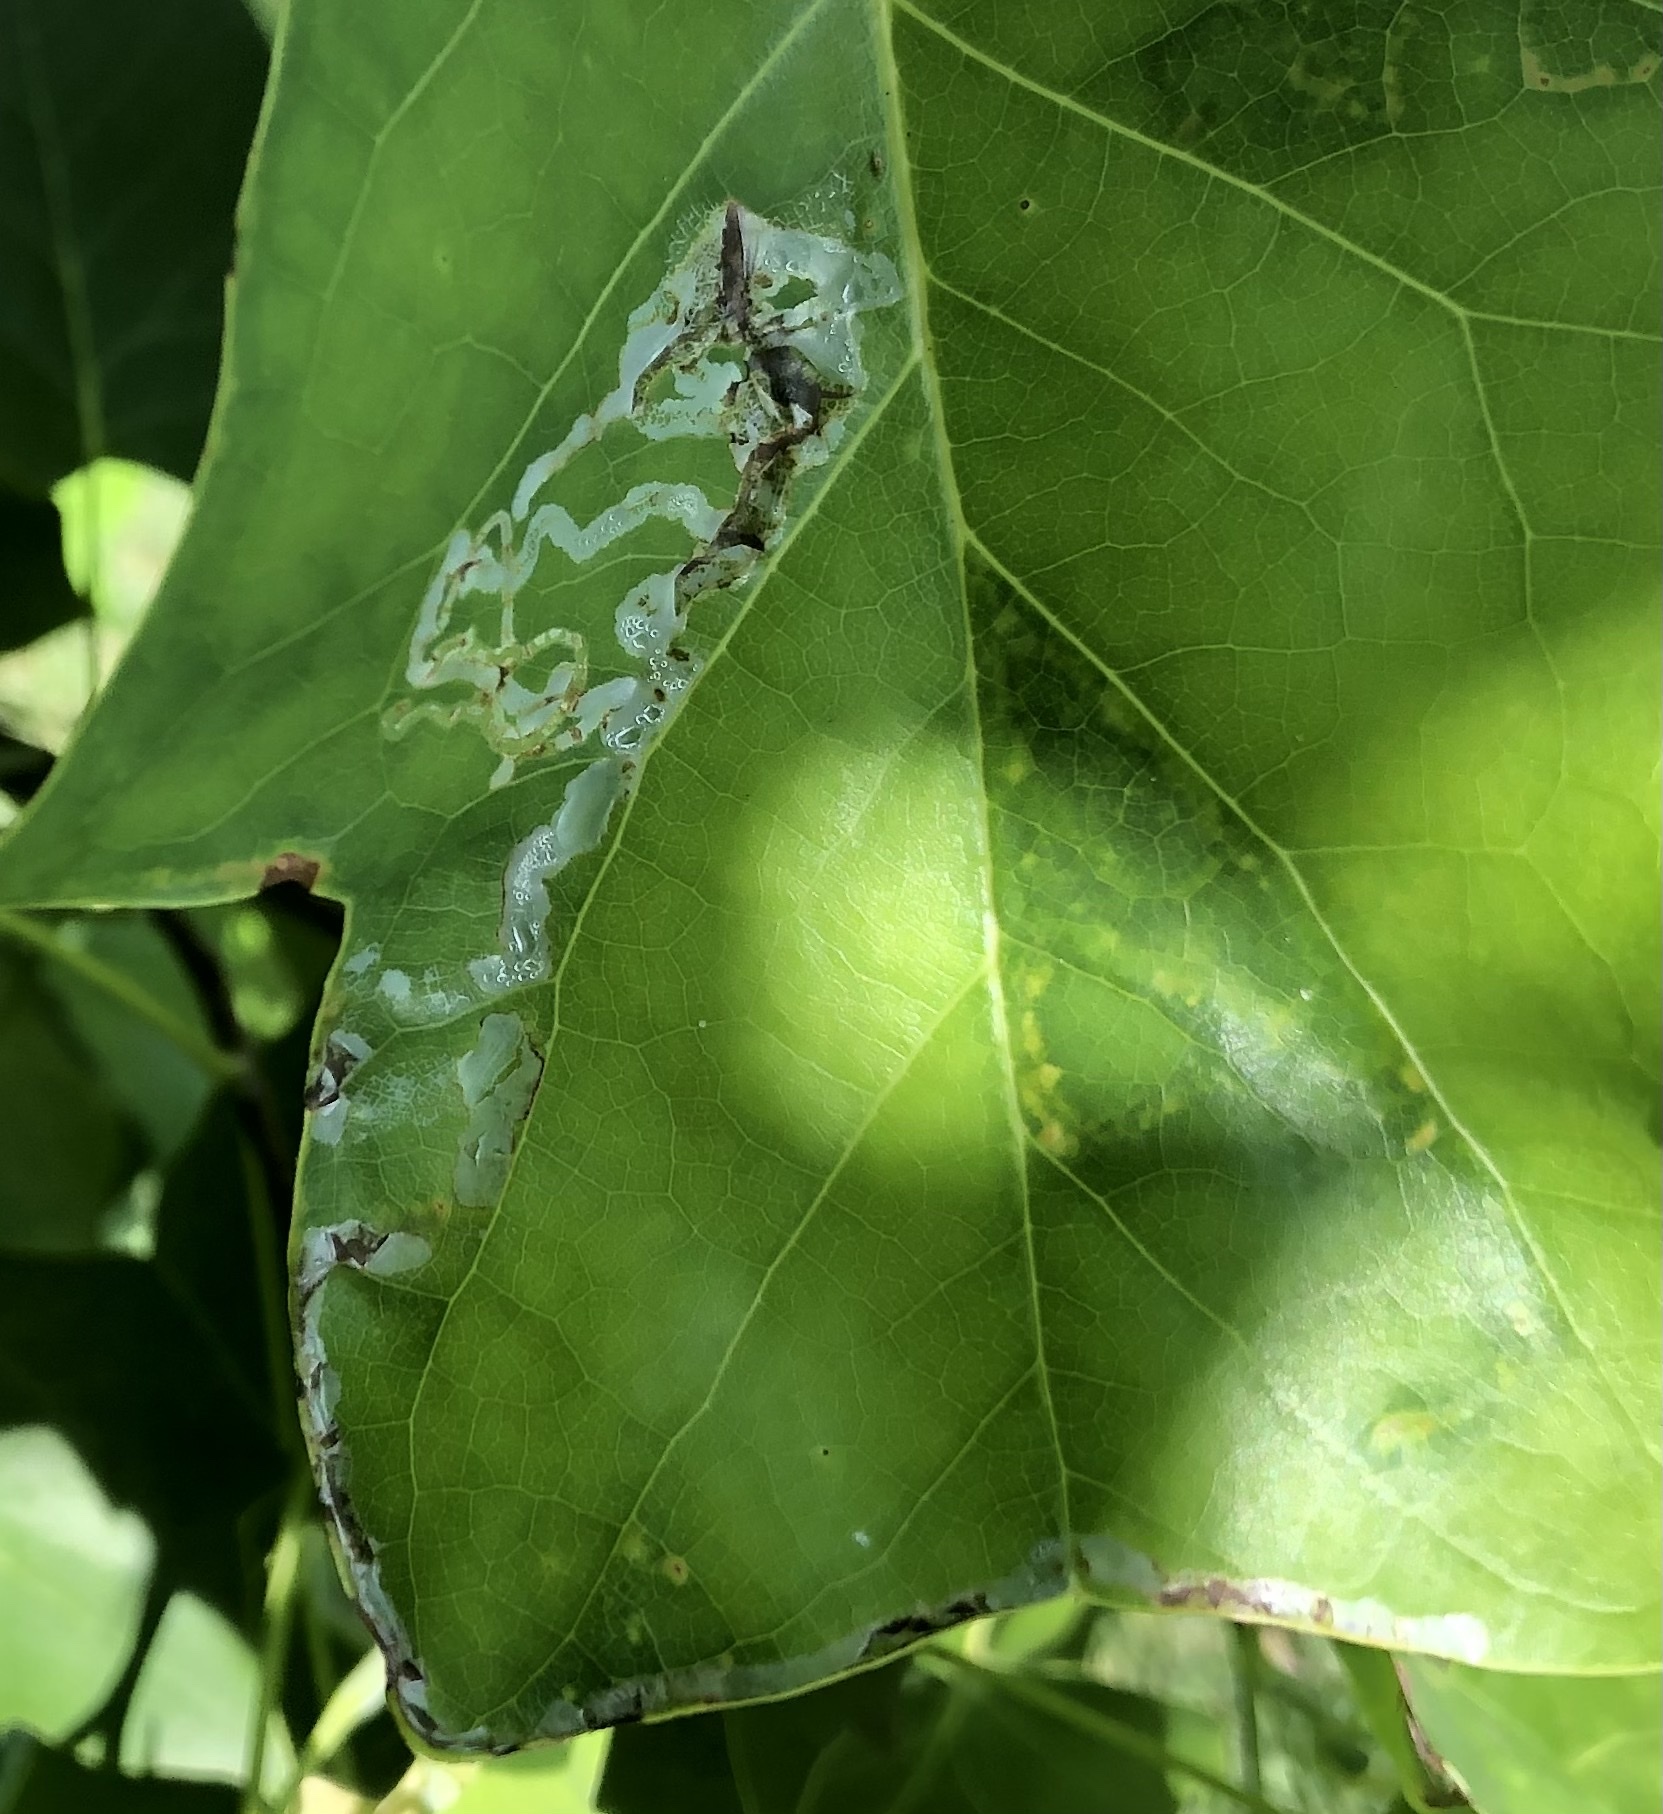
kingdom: Animalia
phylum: Arthropoda
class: Insecta
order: Lepidoptera
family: Gracillariidae
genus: Phyllocnistis
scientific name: Phyllocnistis liriodendronella
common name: Tulip tree leaf miner
